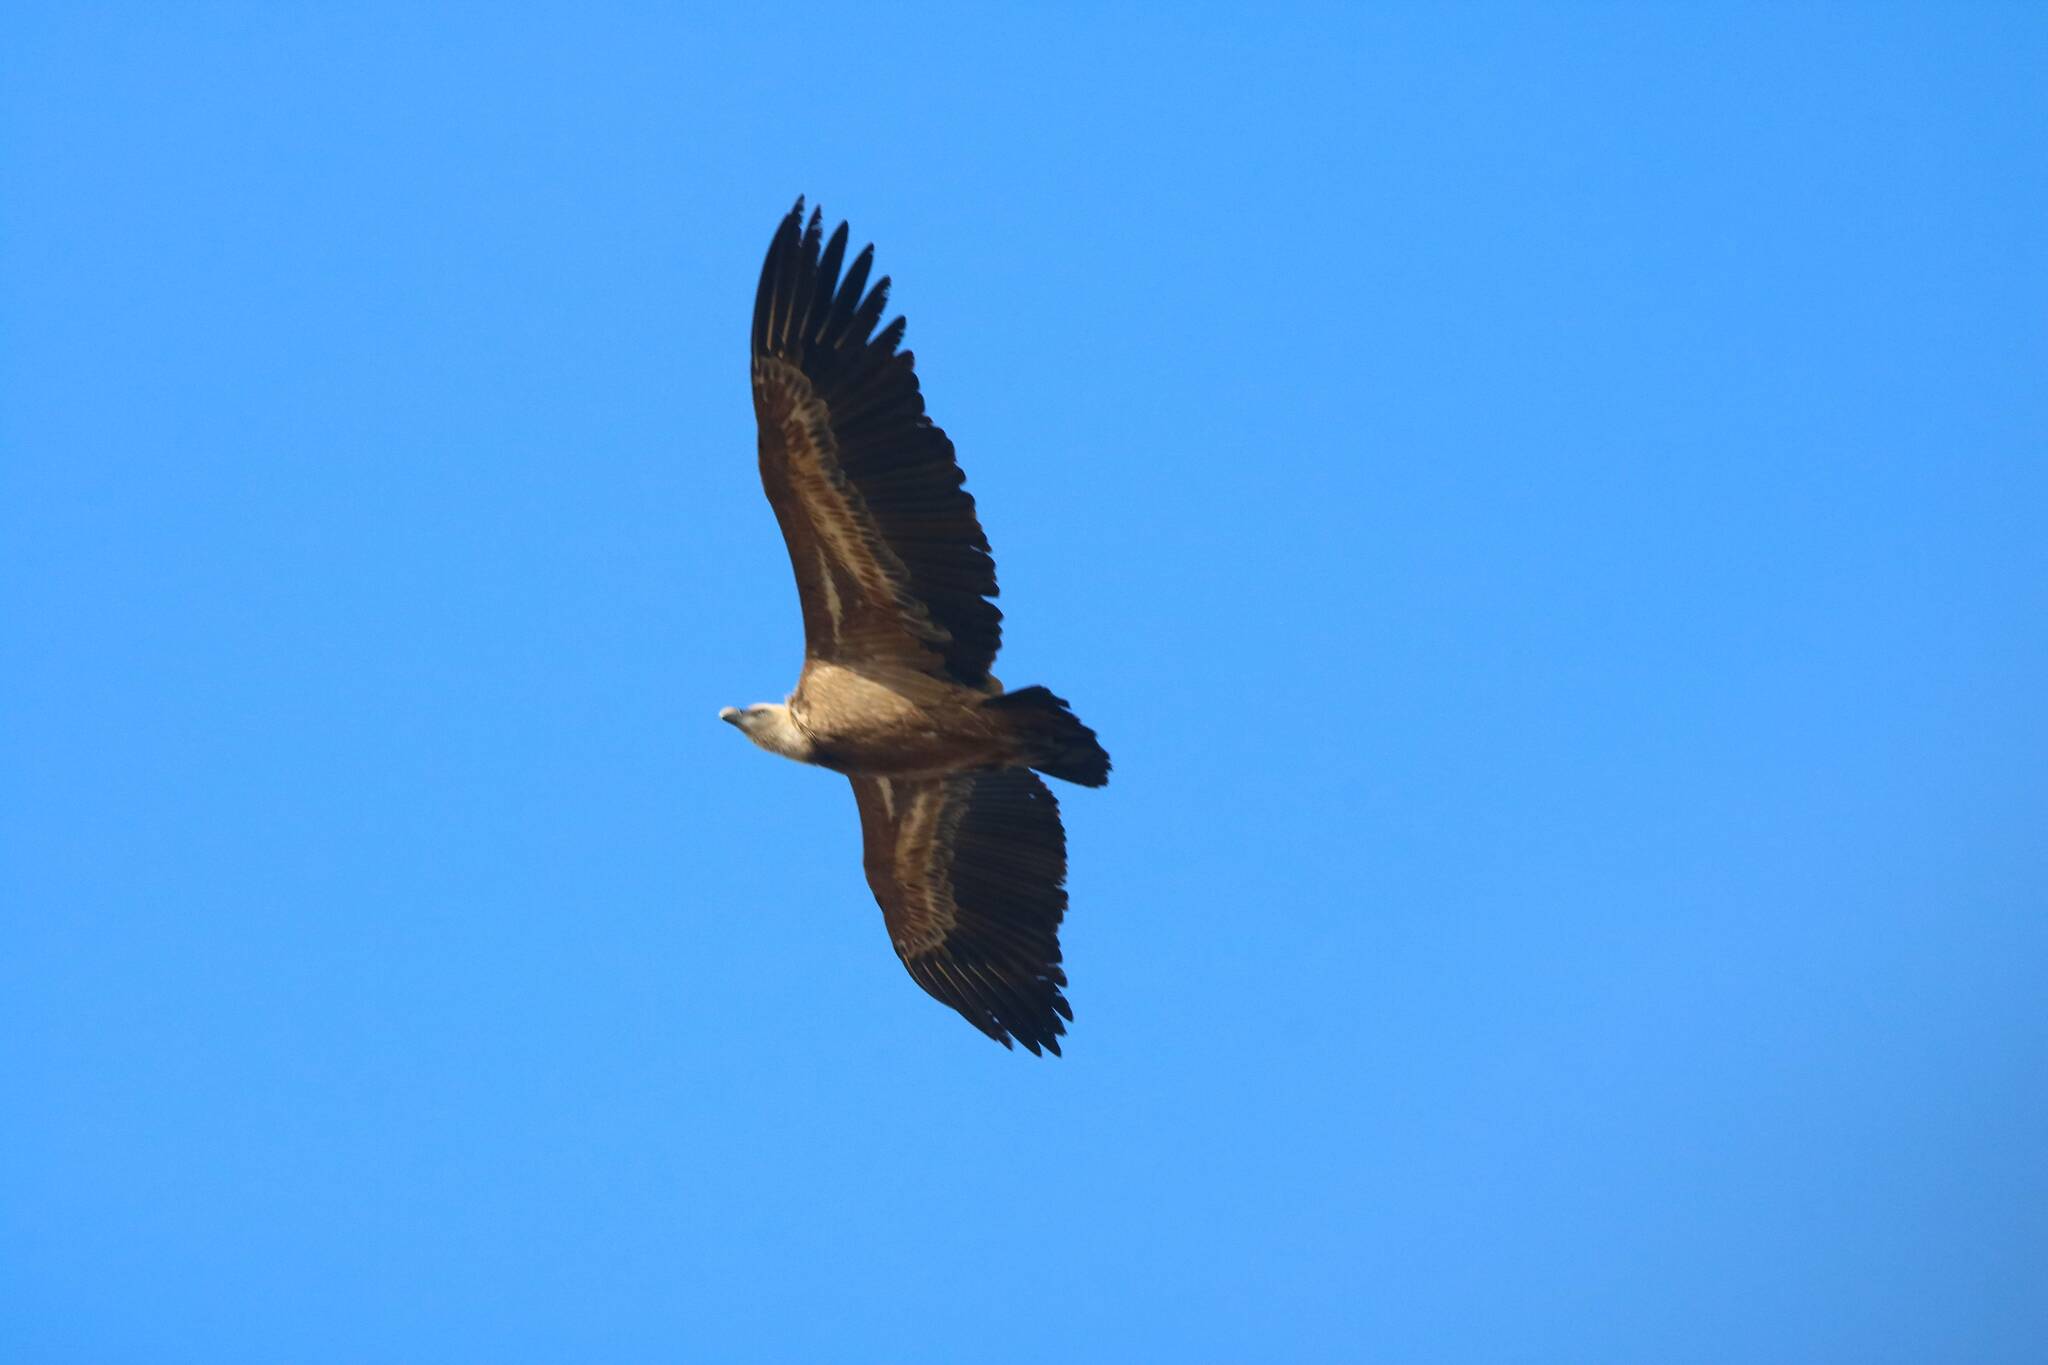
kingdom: Animalia
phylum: Chordata
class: Aves
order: Accipitriformes
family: Accipitridae
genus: Gyps
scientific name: Gyps fulvus
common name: Griffon vulture
